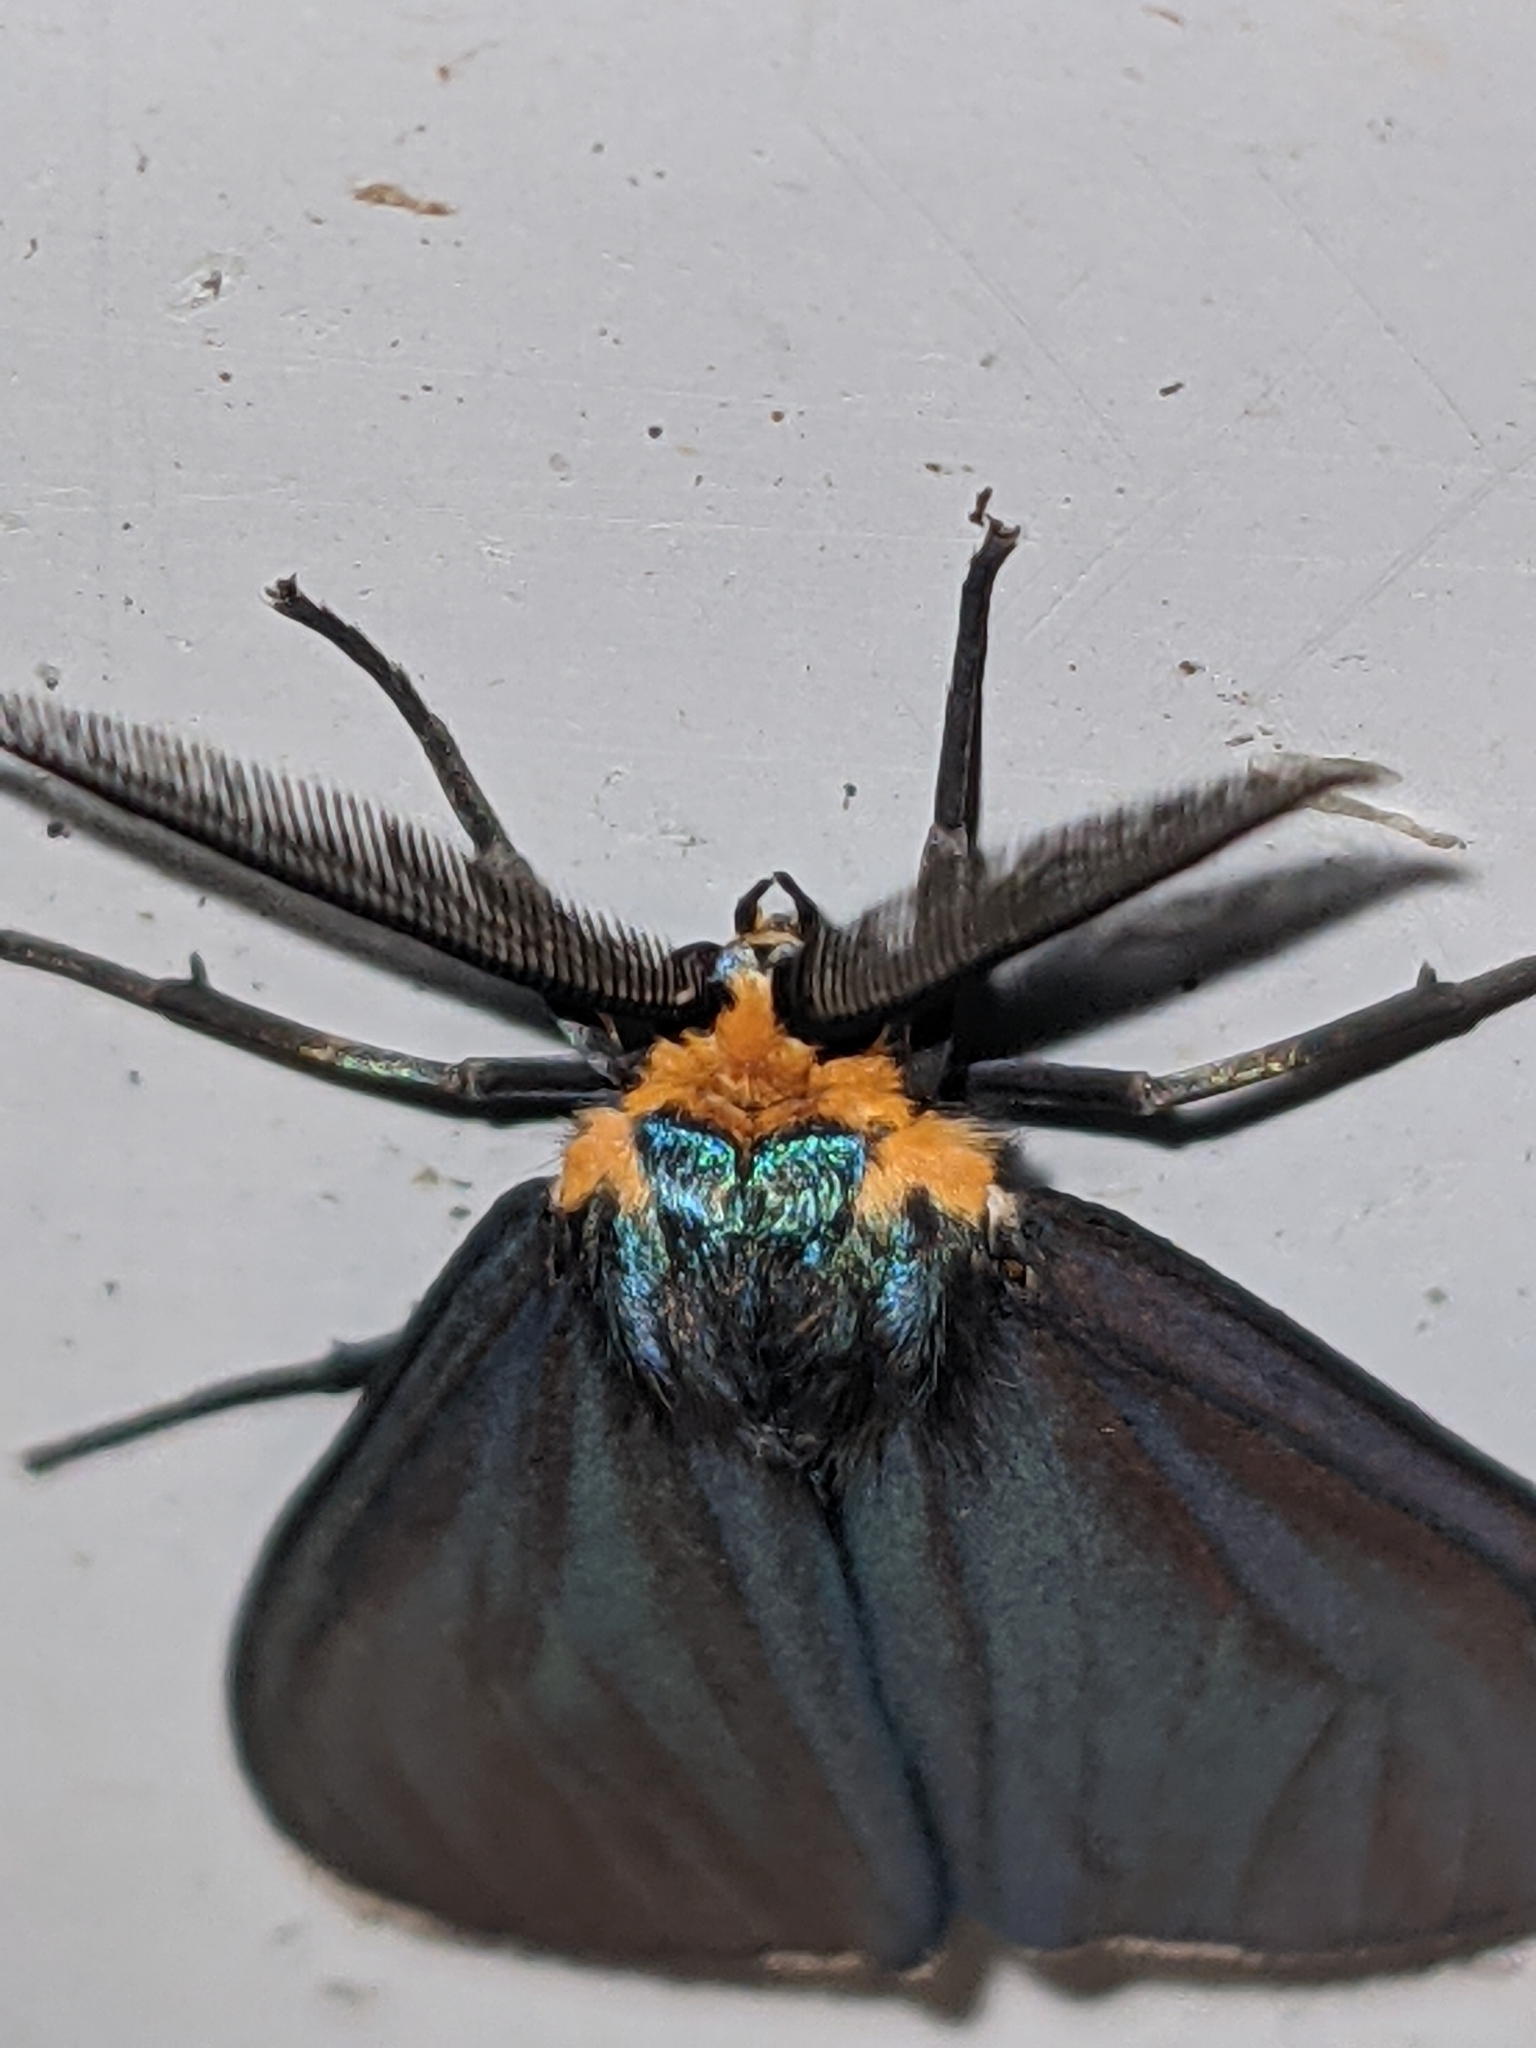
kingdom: Animalia
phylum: Arthropoda
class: Insecta
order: Lepidoptera
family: Erebidae
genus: Ctenucha
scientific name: Ctenucha virginica
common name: Virginia ctenucha moth
